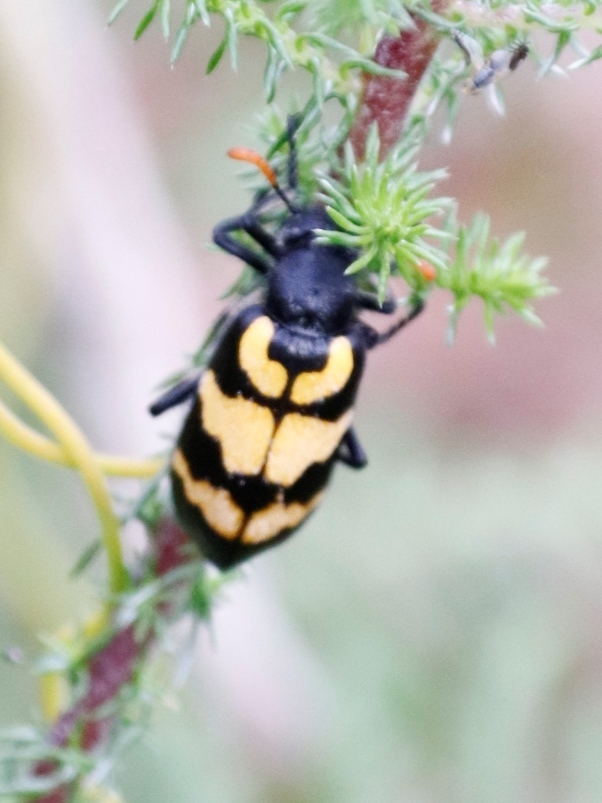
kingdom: Animalia
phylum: Arthropoda
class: Insecta
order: Coleoptera
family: Meloidae
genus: Meloe
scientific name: Meloe lunata
